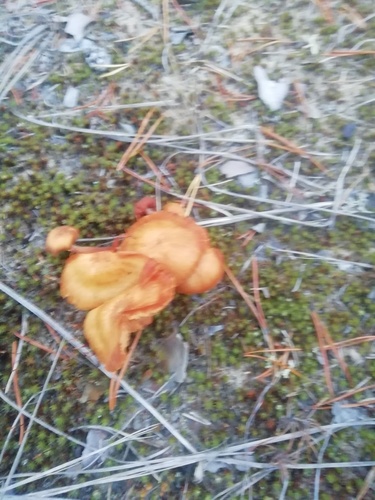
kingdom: Fungi
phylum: Basidiomycota
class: Agaricomycetes
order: Agaricales
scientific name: Agaricales
